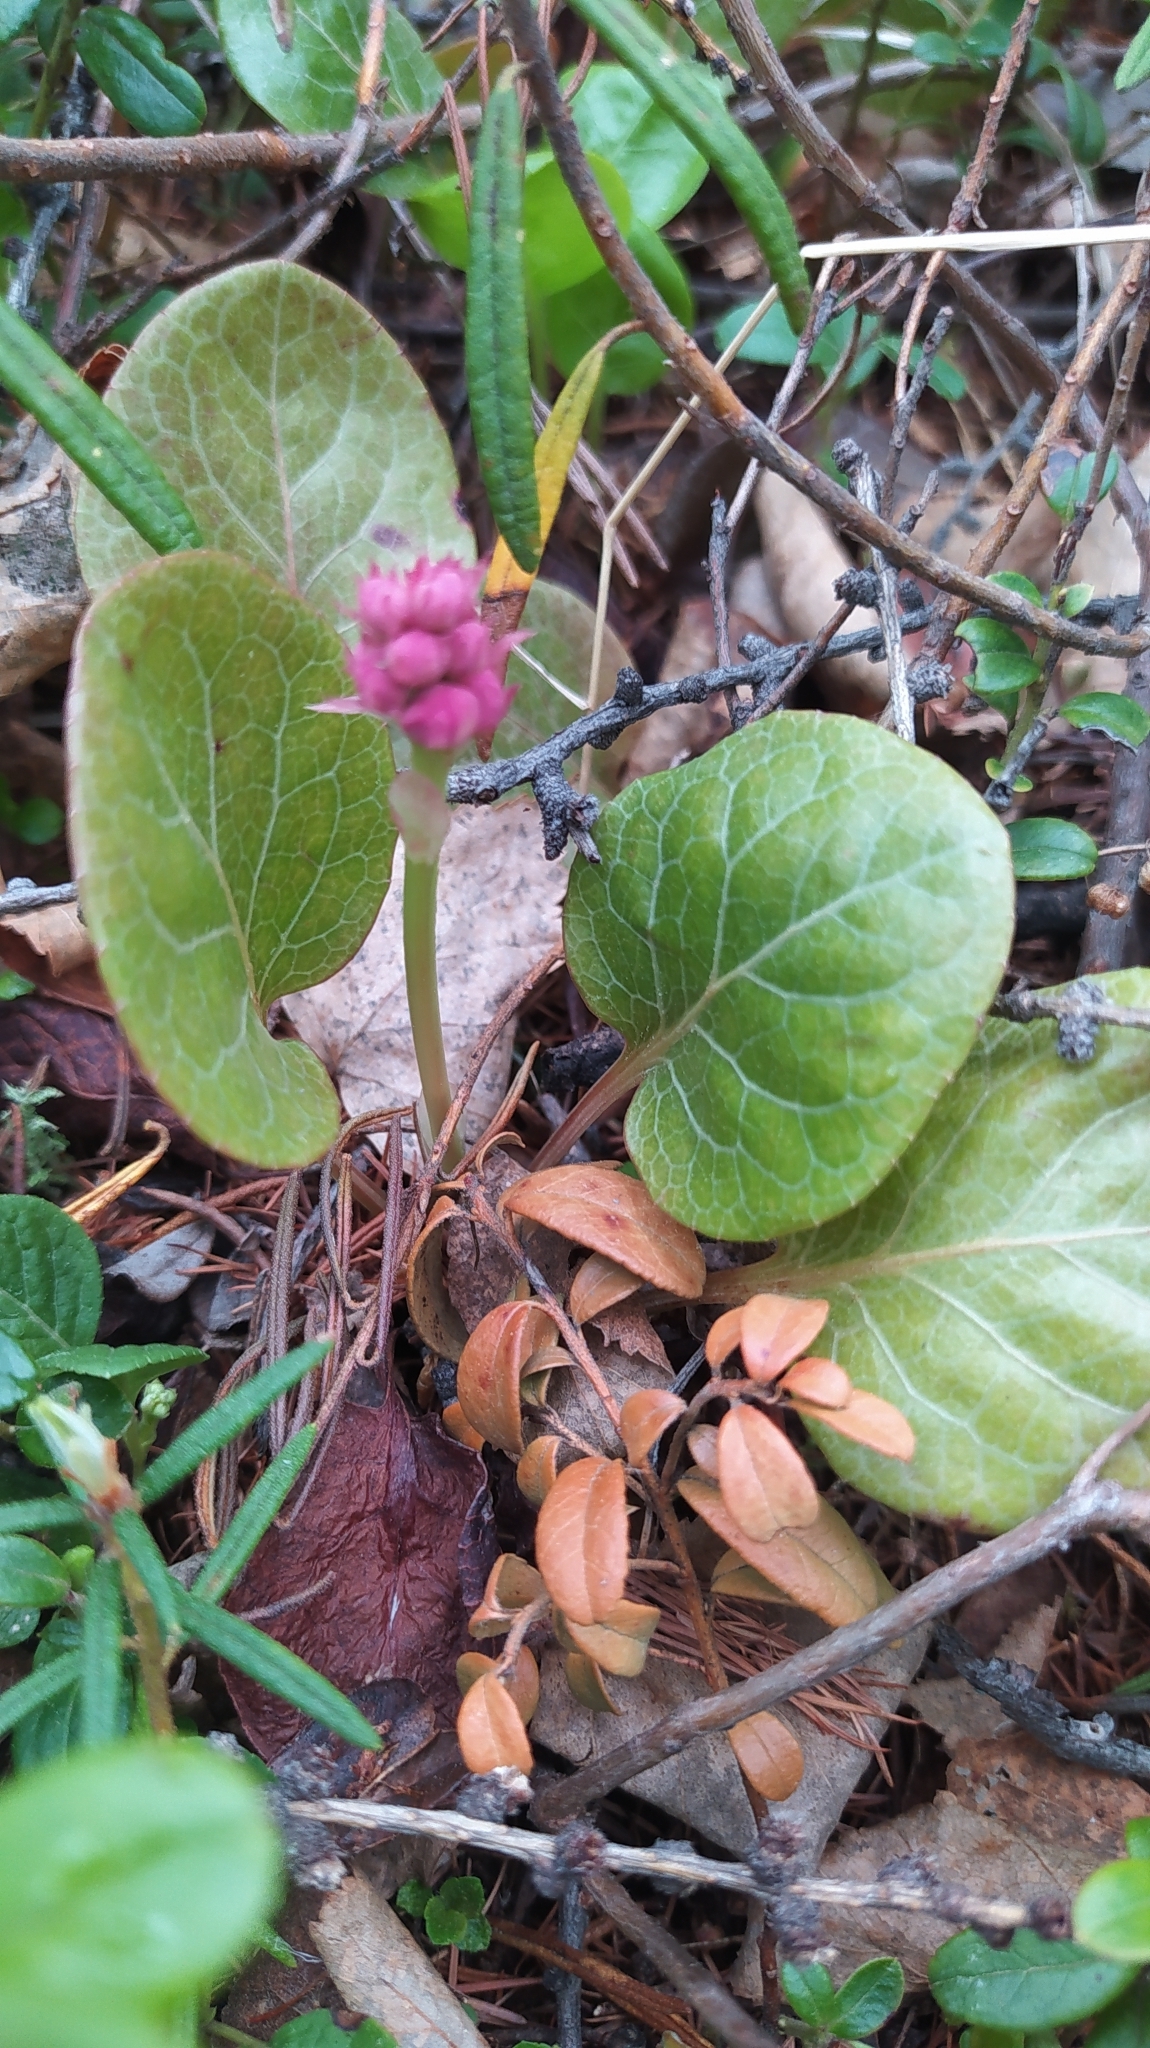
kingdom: Plantae
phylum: Tracheophyta
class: Magnoliopsida
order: Ericales
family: Ericaceae
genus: Pyrola
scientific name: Pyrola asarifolia
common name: Bog wintergreen
